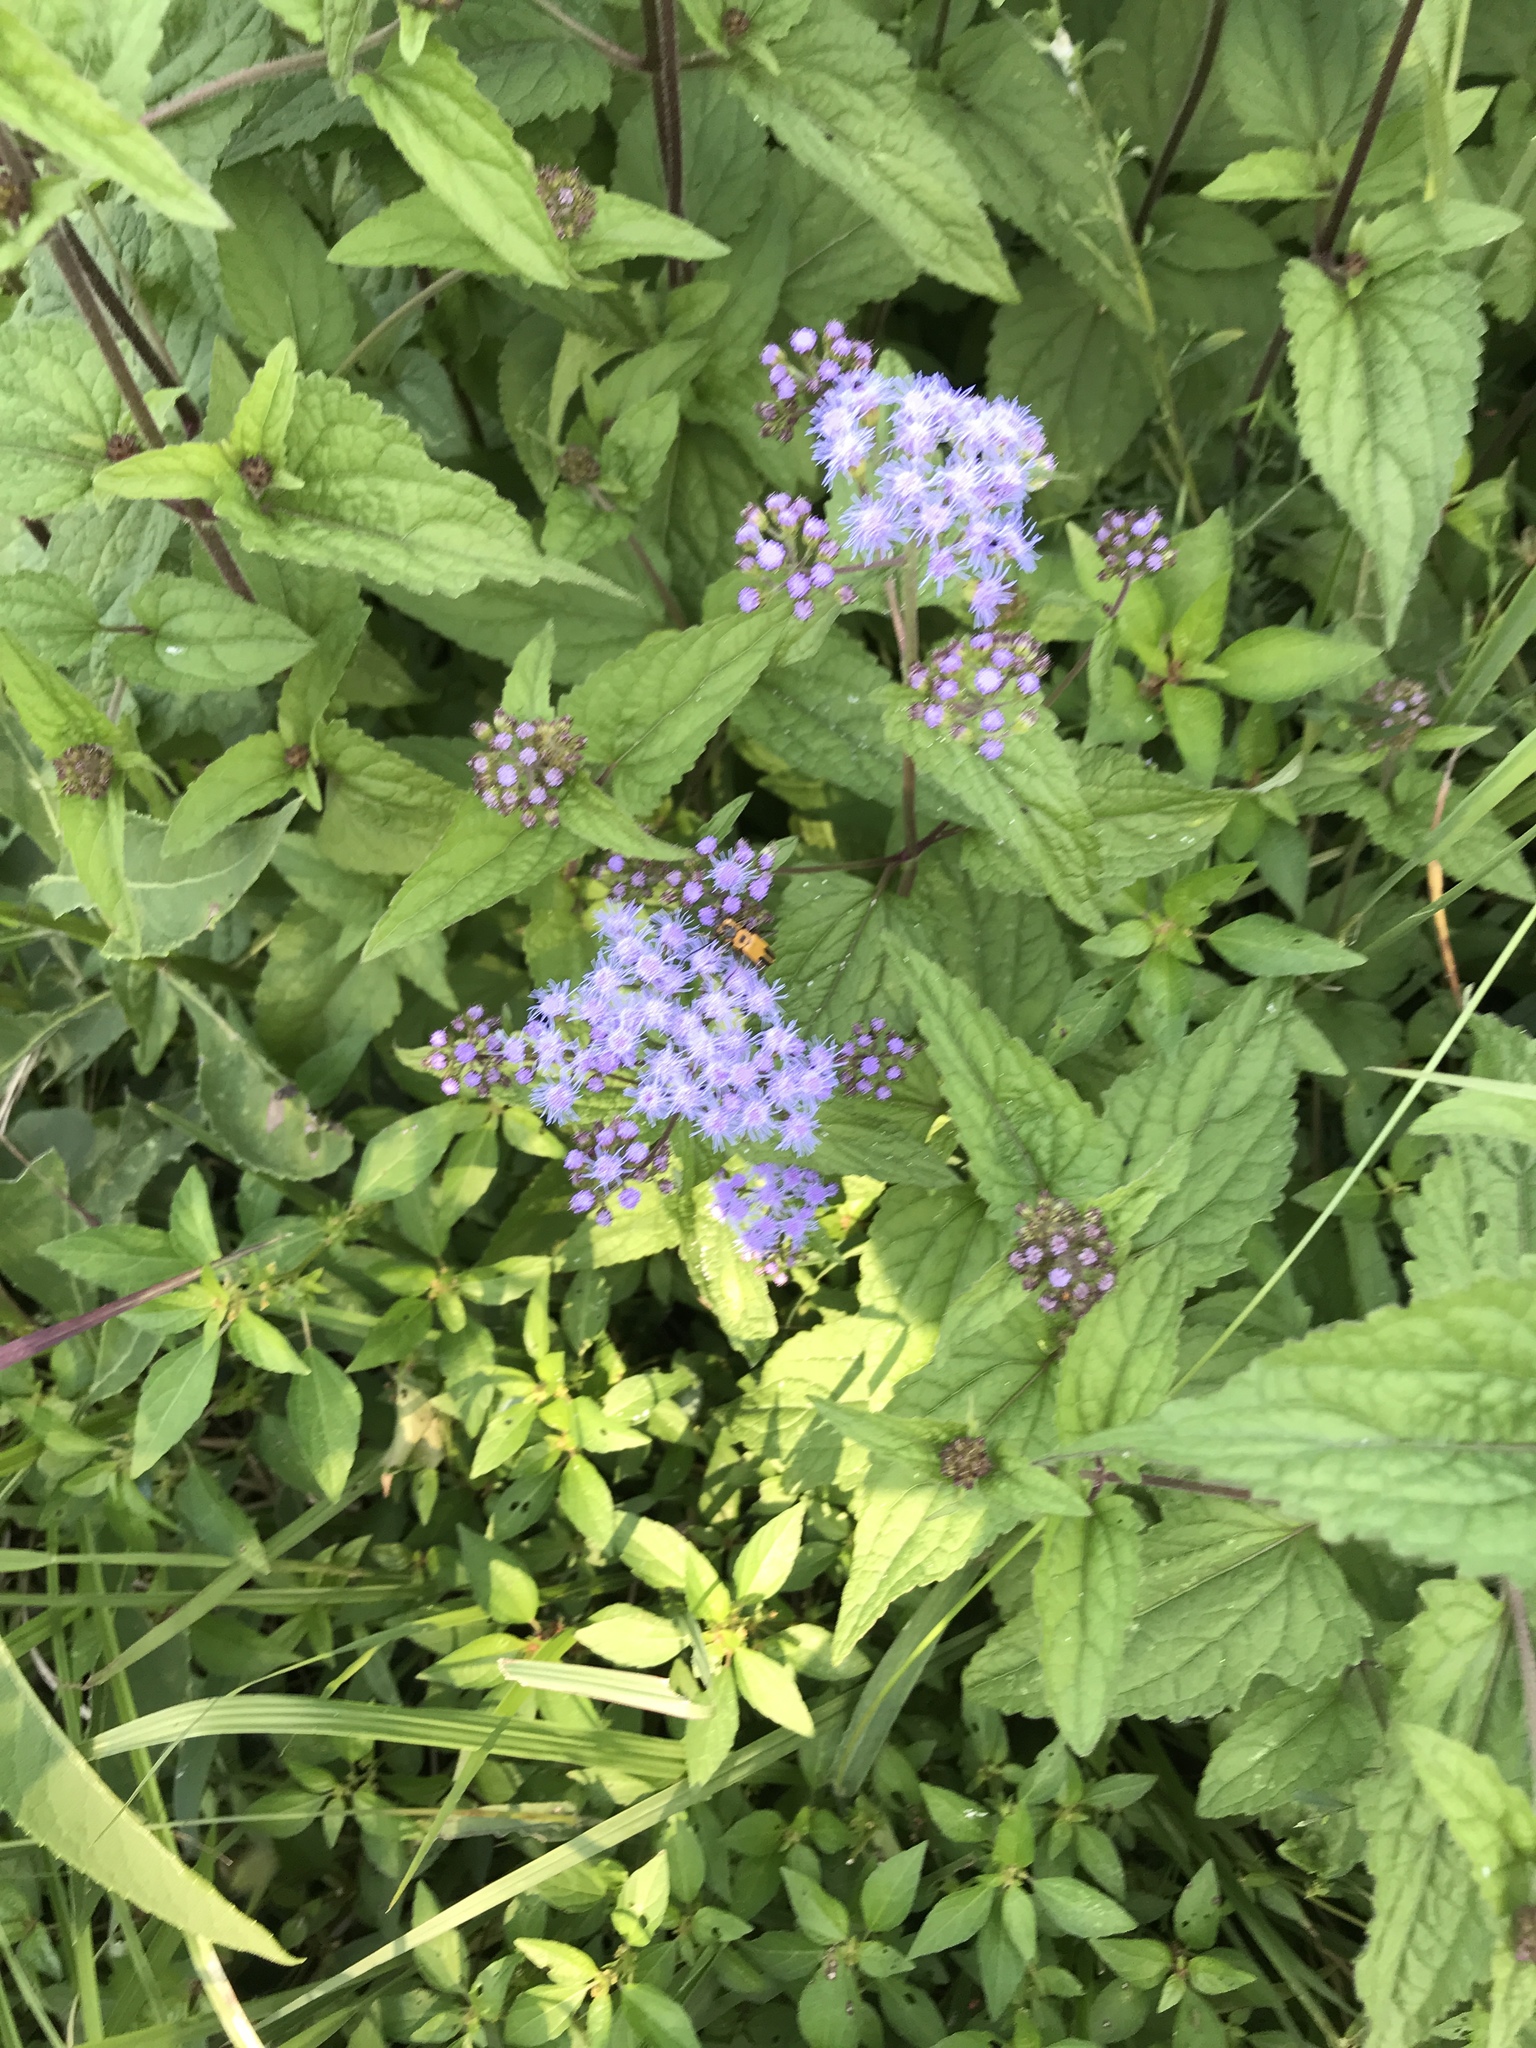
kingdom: Plantae
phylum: Tracheophyta
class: Magnoliopsida
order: Asterales
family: Asteraceae
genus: Conoclinium
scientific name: Conoclinium coelestinum
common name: Blue mistflower
